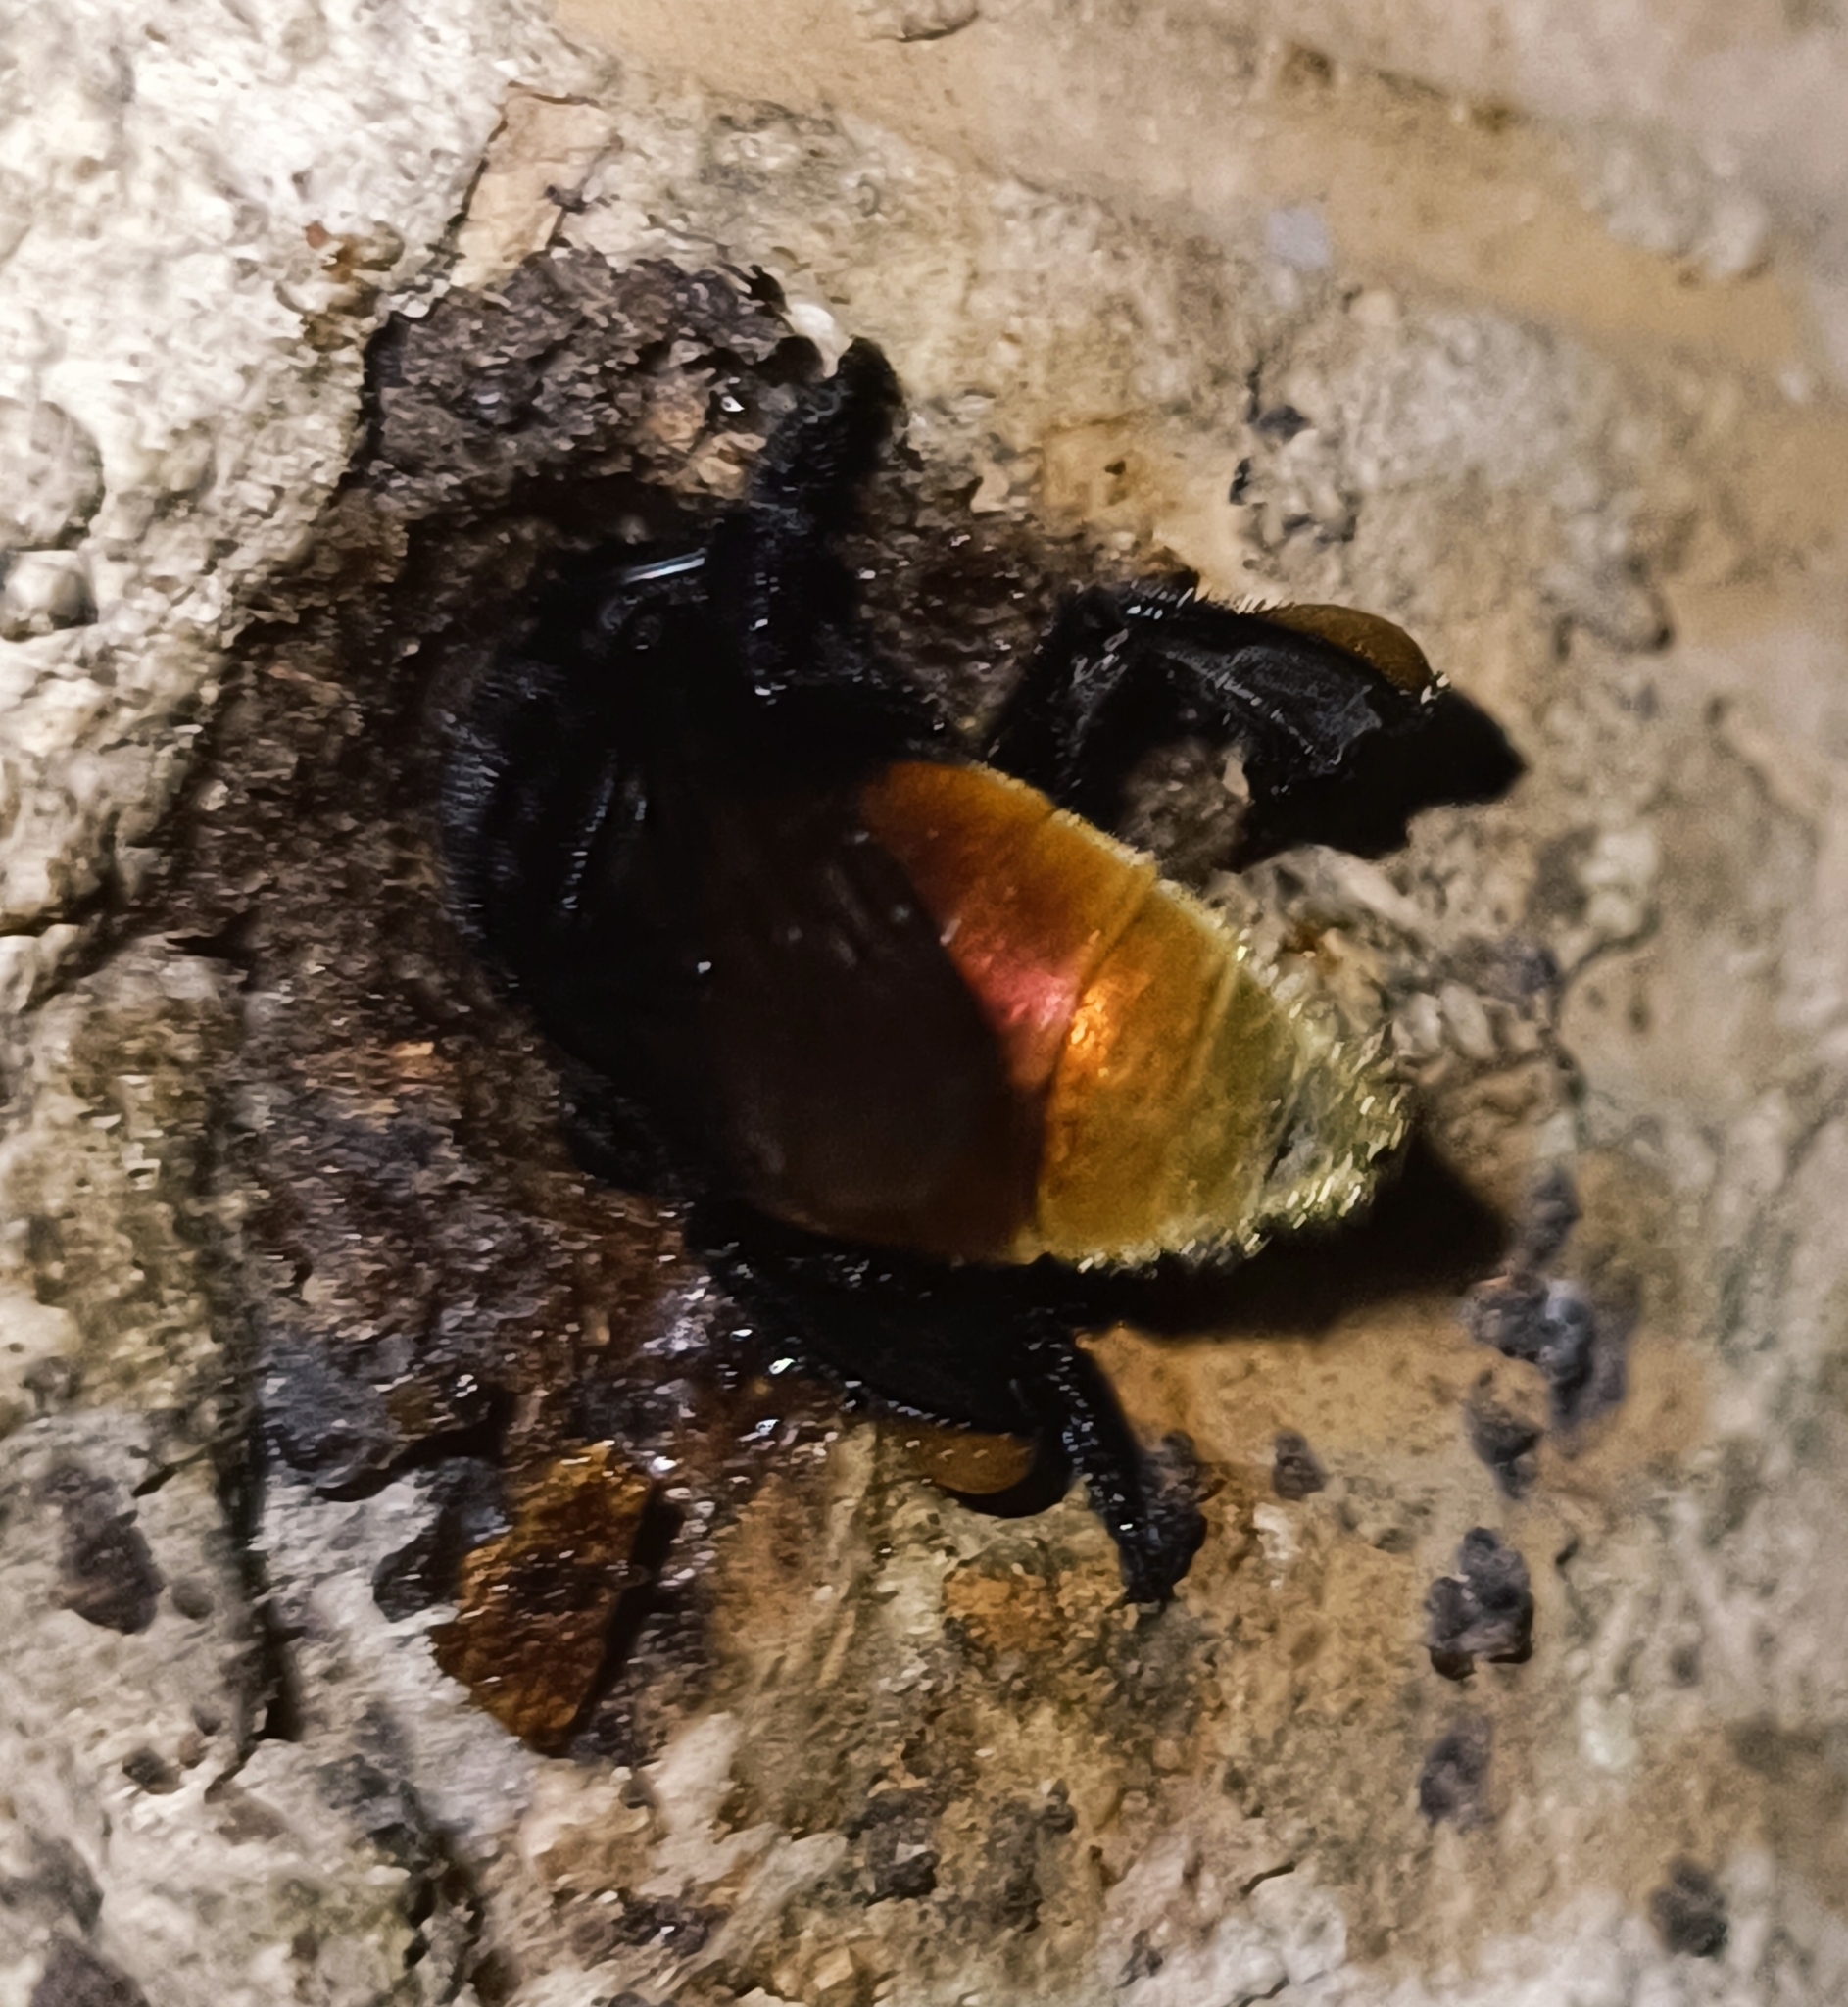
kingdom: Animalia
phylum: Arthropoda
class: Insecta
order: Hymenoptera
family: Apidae
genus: Eulaema
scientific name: Eulaema polychroma
